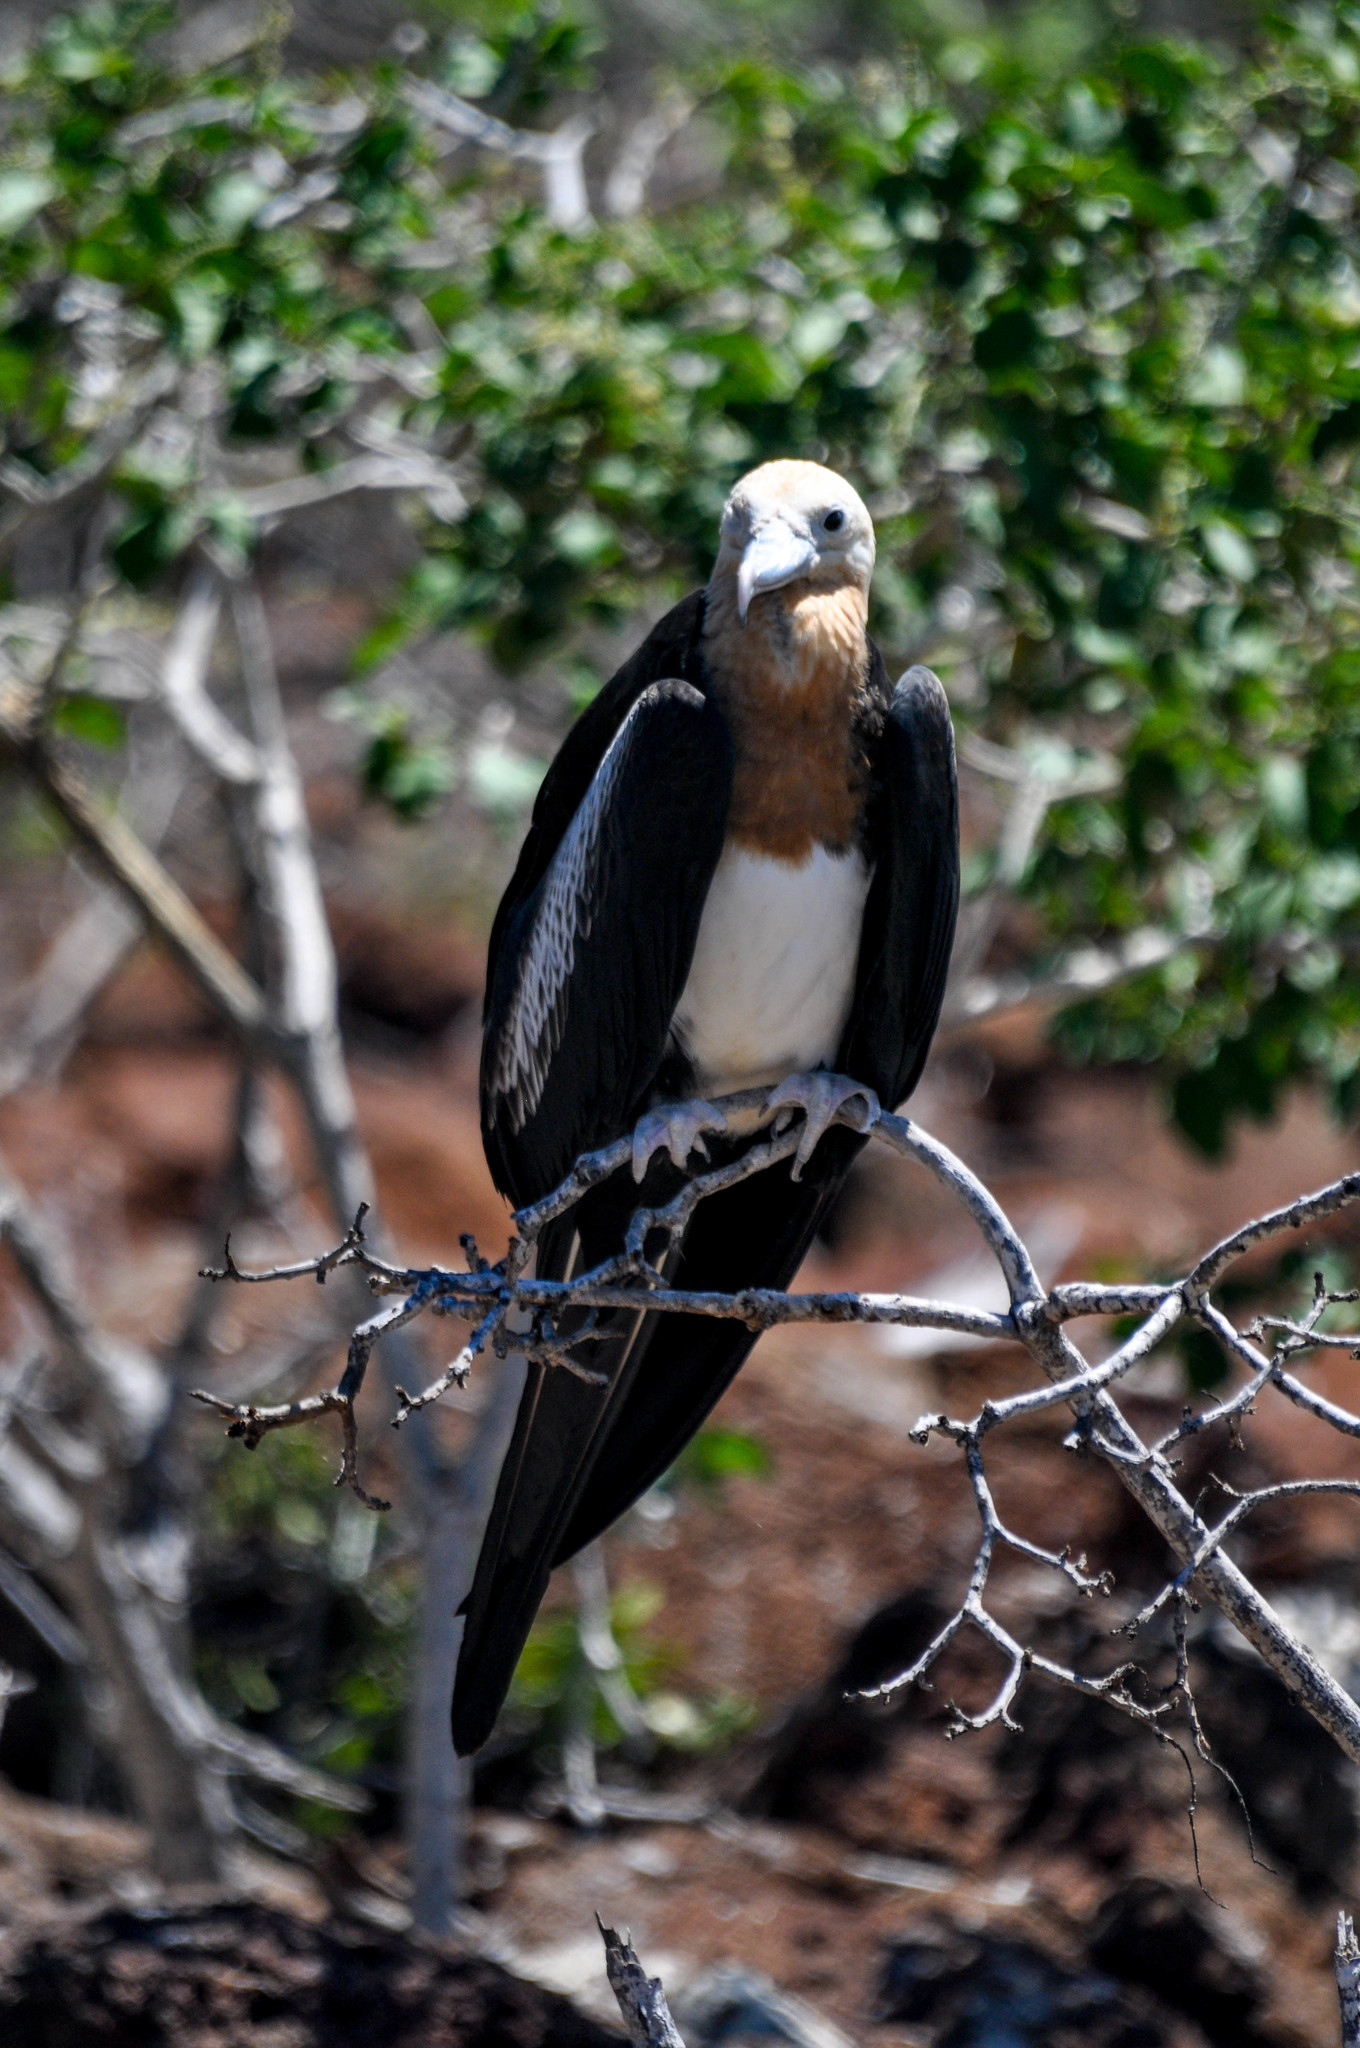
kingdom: Animalia
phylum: Chordata
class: Aves
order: Suliformes
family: Fregatidae
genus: Fregata
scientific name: Fregata minor
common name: Great frigatebird
